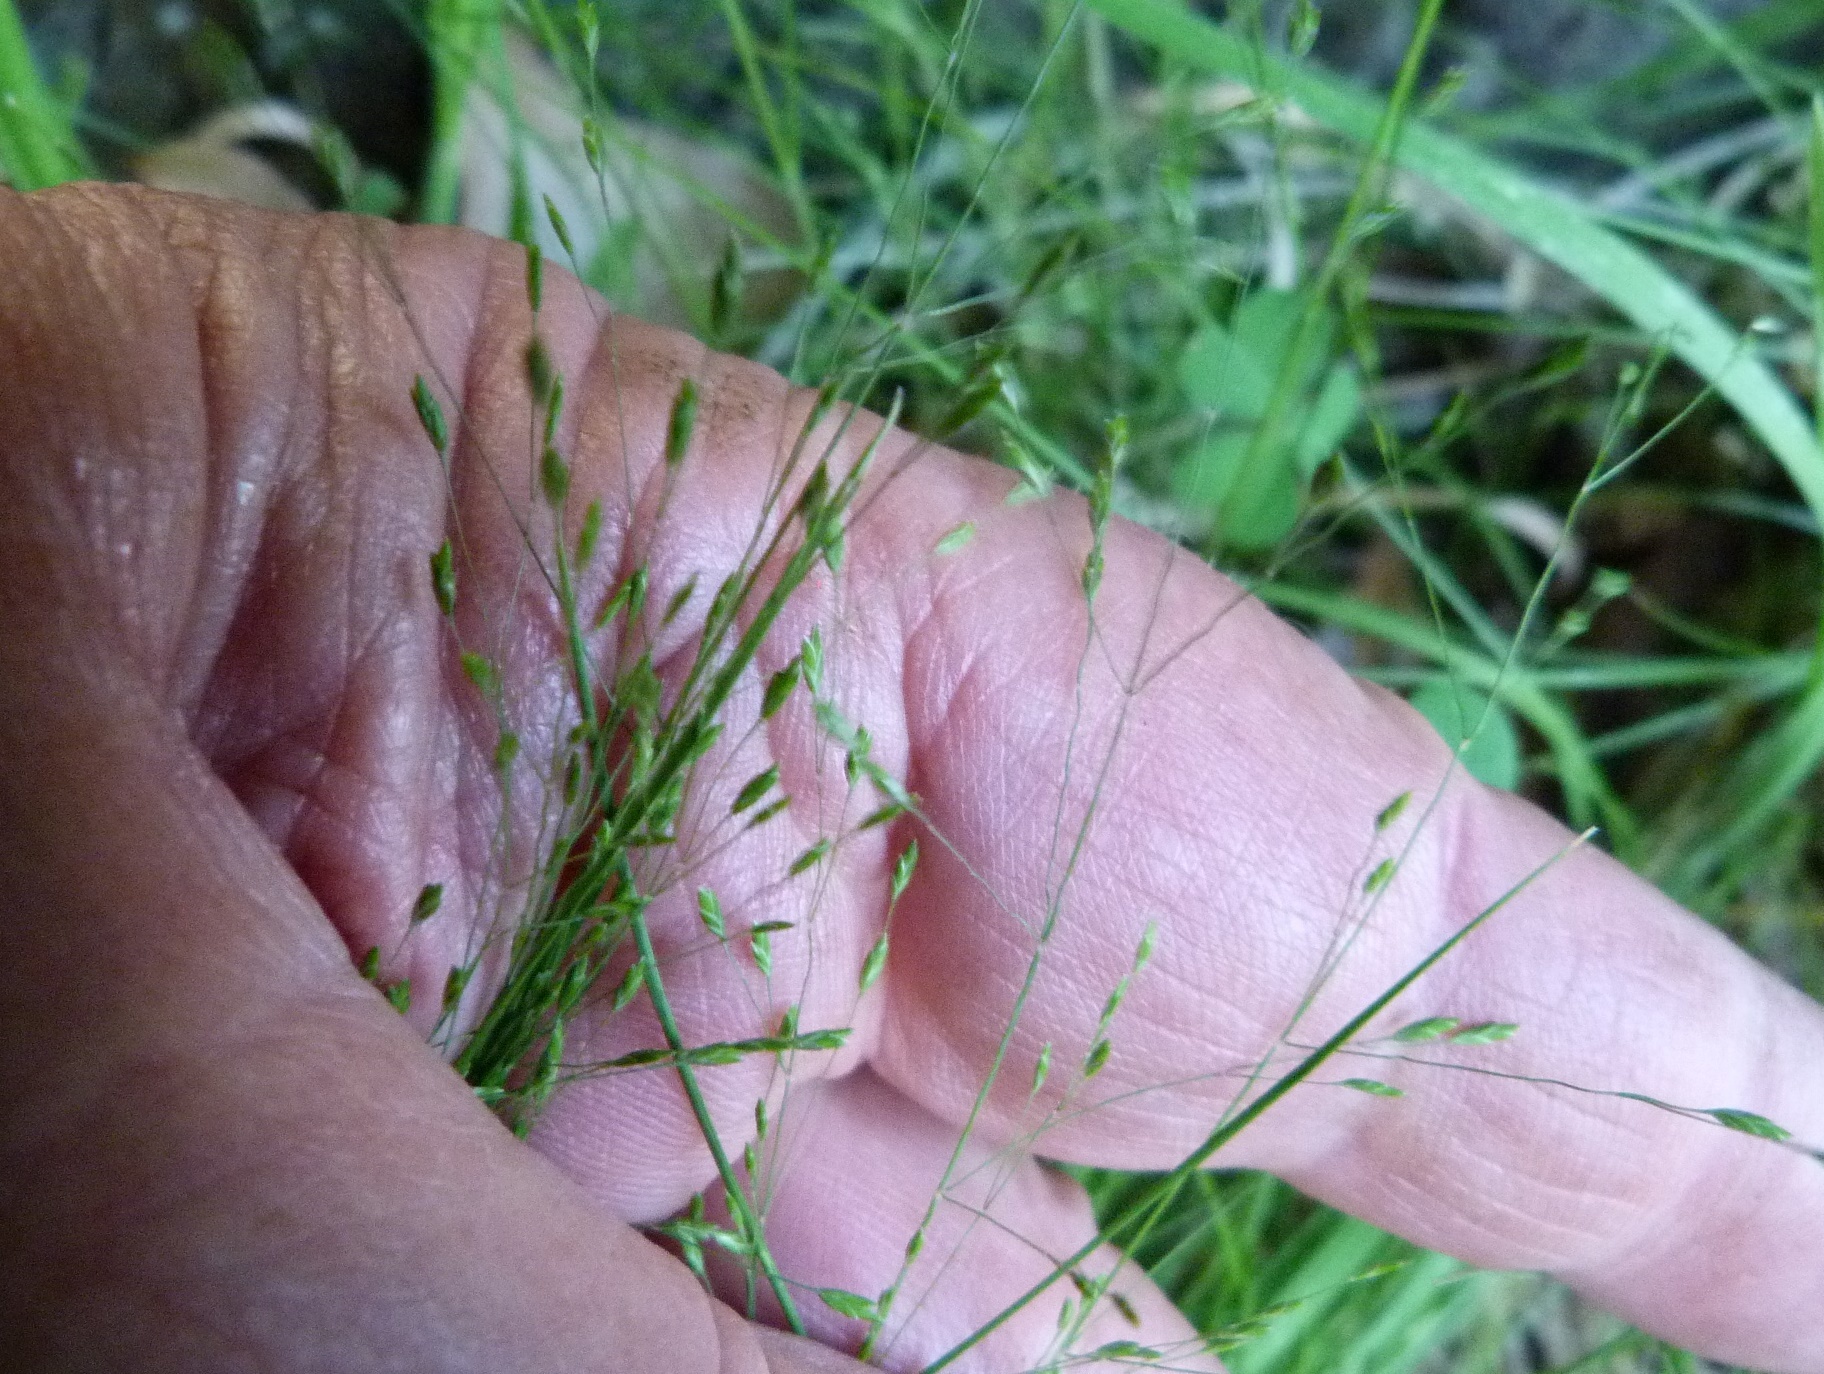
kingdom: Plantae
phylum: Tracheophyta
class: Liliopsida
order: Poales
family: Poaceae
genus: Poa
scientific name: Poa imbecilla
